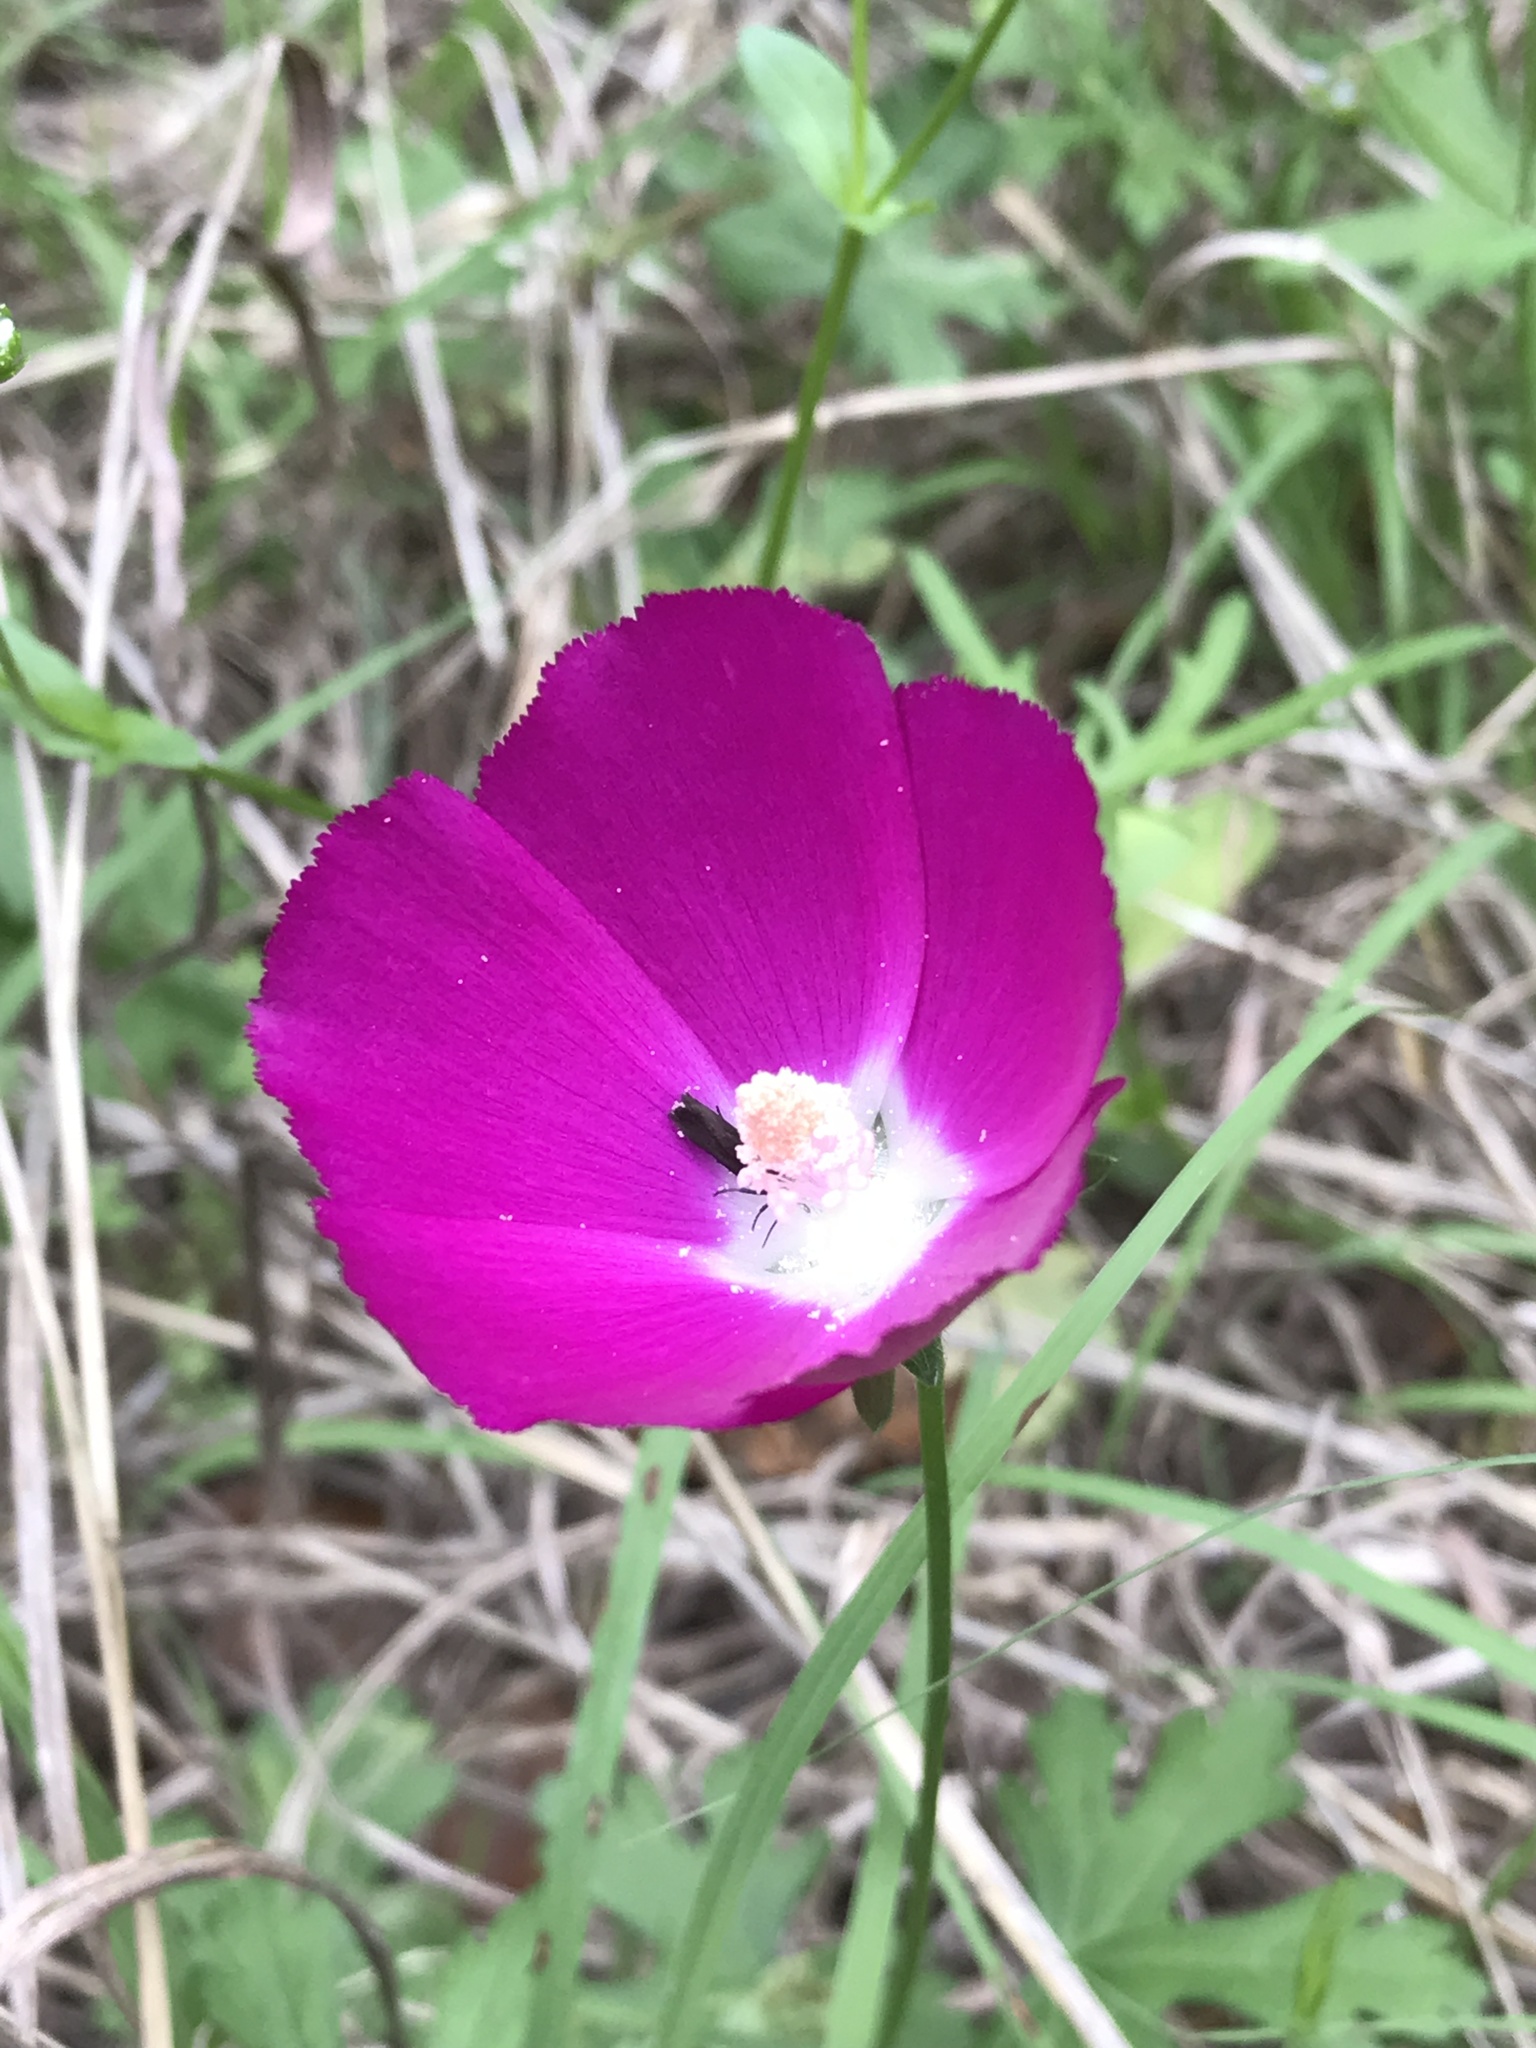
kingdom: Plantae
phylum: Tracheophyta
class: Magnoliopsida
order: Malvales
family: Malvaceae
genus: Callirhoe
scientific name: Callirhoe involucrata
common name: Purple poppy-mallow
